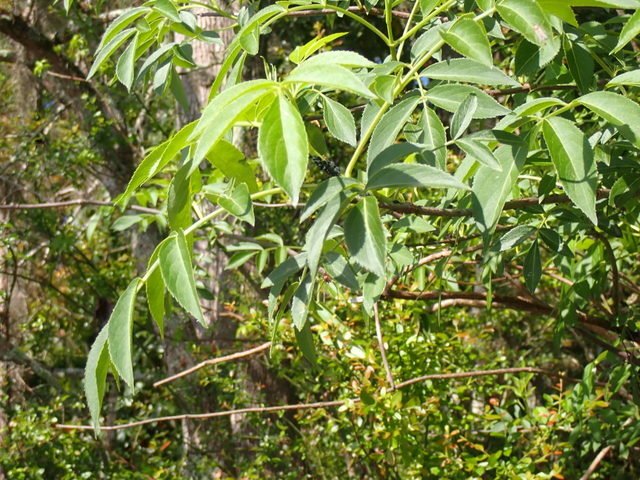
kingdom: Plantae
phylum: Tracheophyta
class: Magnoliopsida
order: Dipsacales
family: Viburnaceae
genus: Sambucus
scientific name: Sambucus canadensis
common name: American elder
